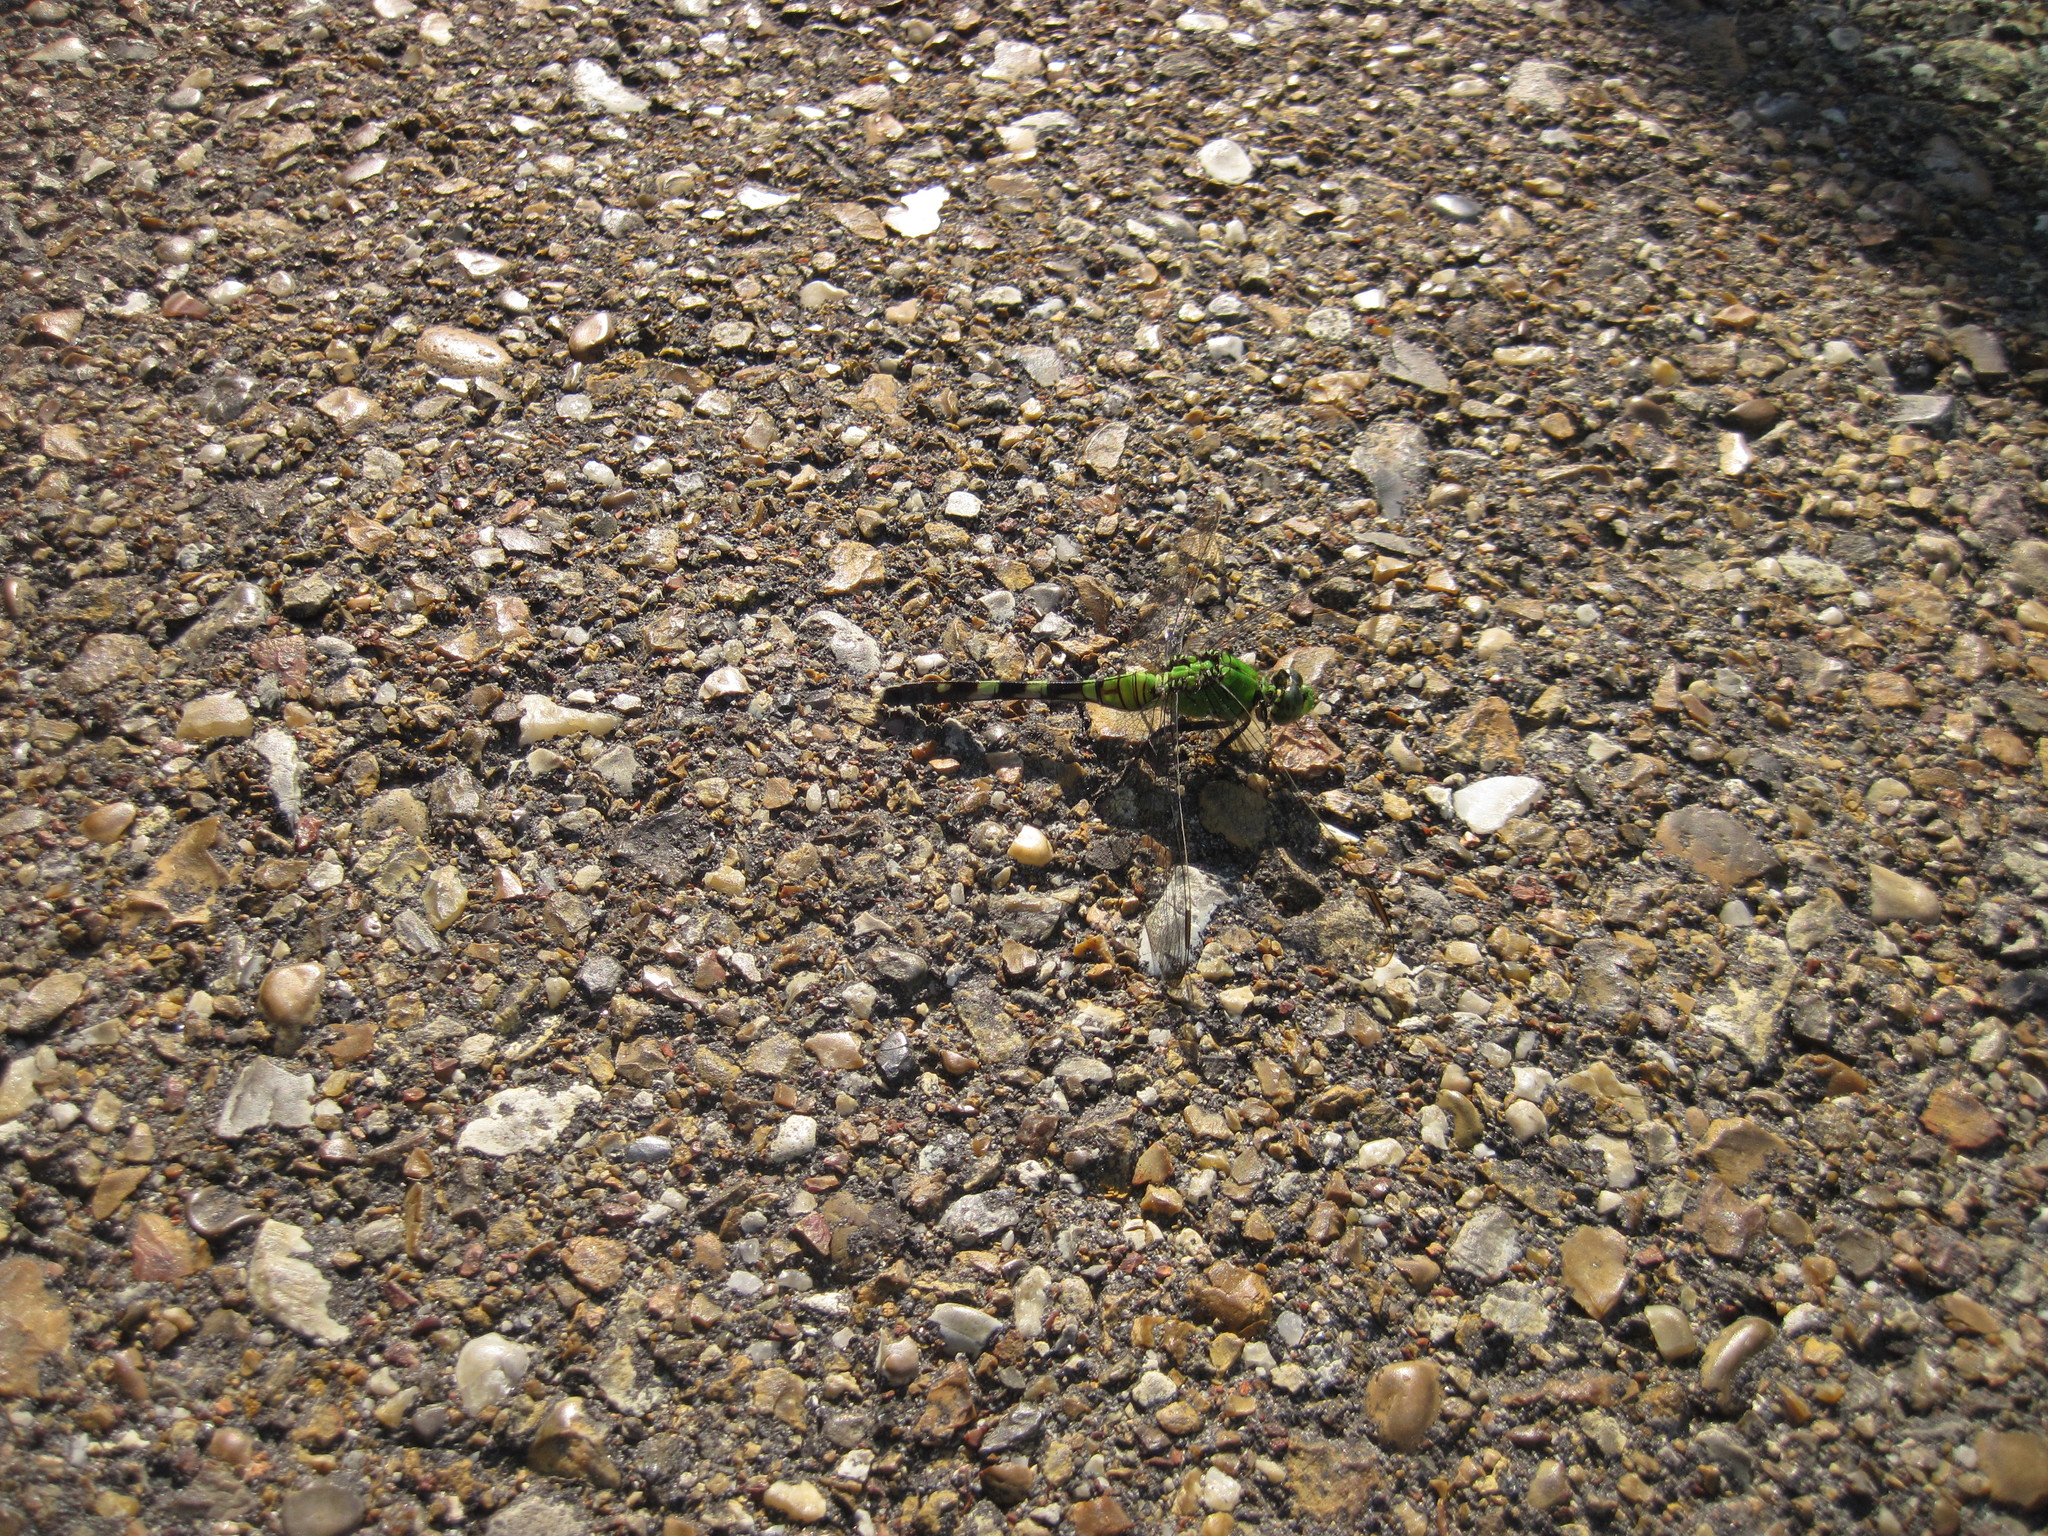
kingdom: Animalia
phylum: Arthropoda
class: Insecta
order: Odonata
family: Libellulidae
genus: Erythemis
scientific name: Erythemis simplicicollis
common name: Eastern pondhawk
